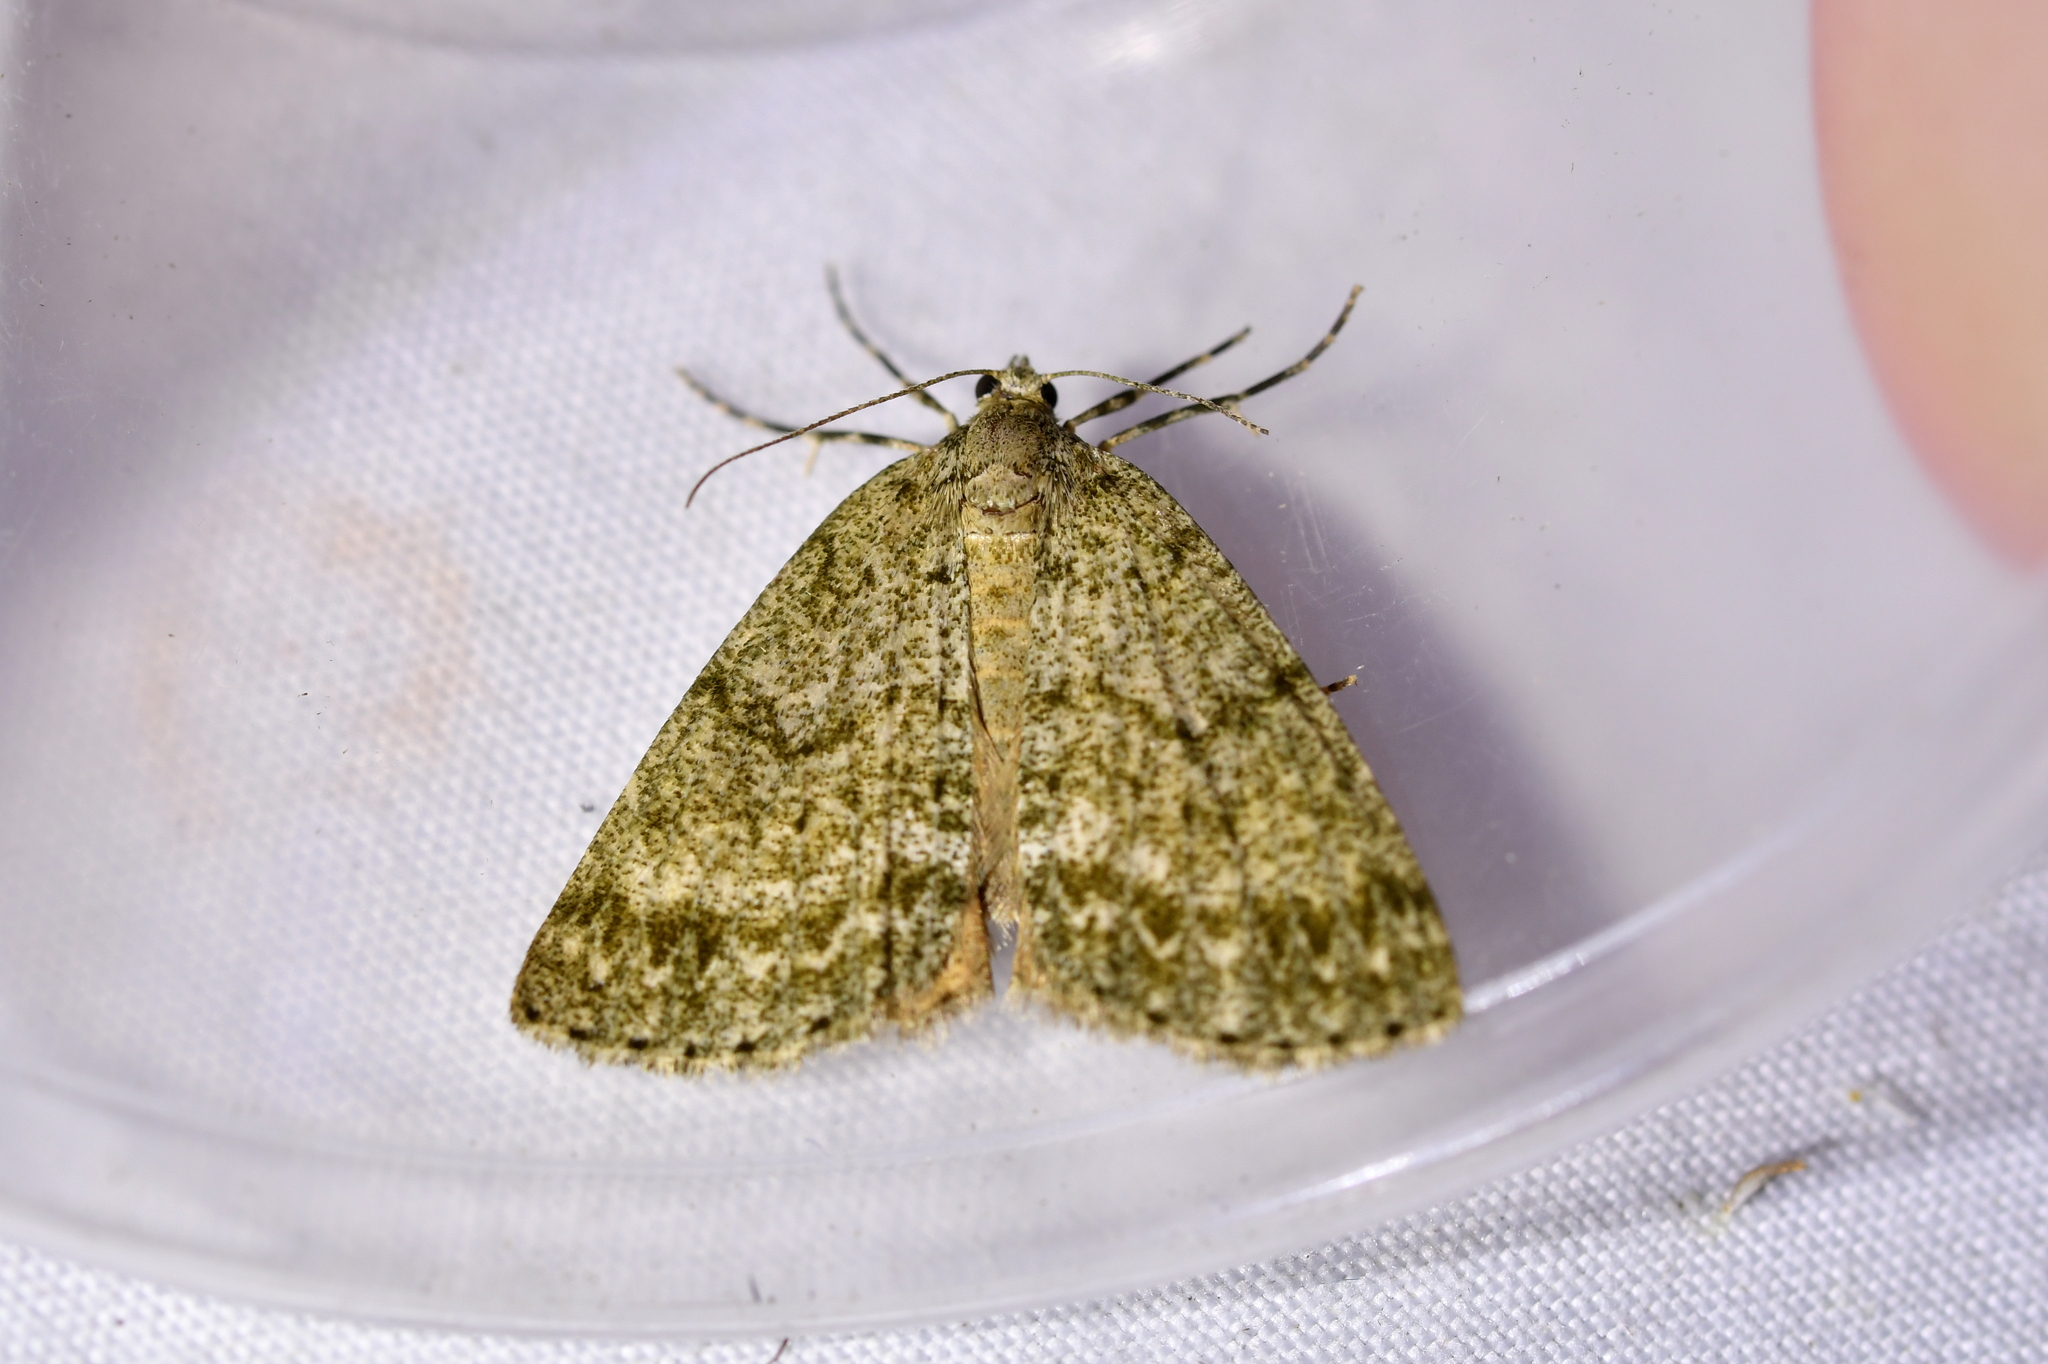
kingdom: Animalia
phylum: Arthropoda
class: Insecta
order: Lepidoptera
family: Geometridae
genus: Pseudocoremia
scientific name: Pseudocoremia indistincta
